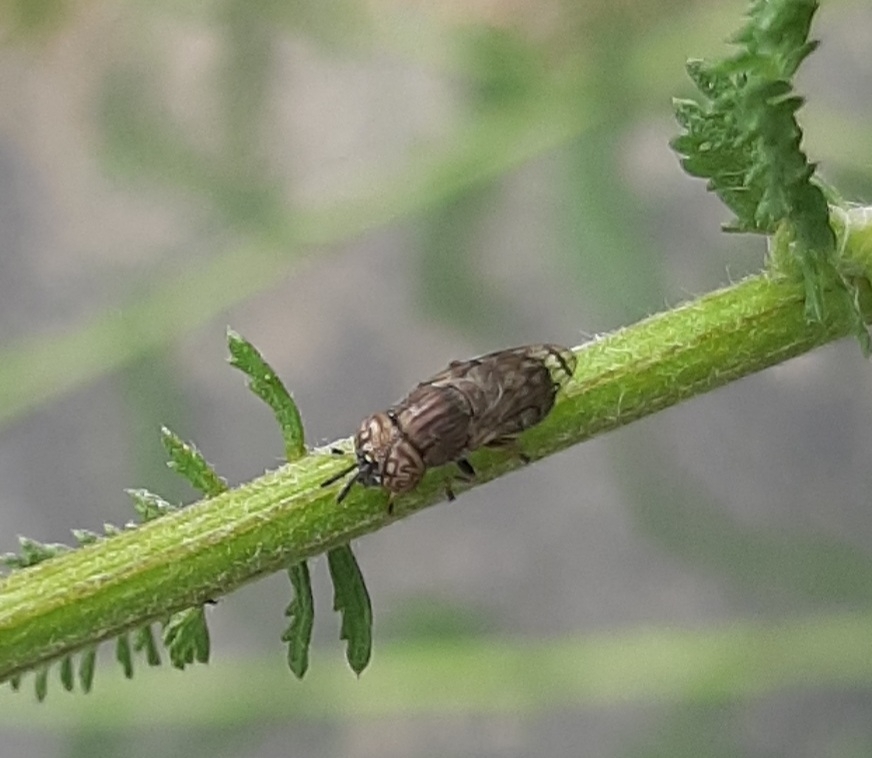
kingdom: Animalia
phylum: Arthropoda
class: Insecta
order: Diptera
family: Syrphidae
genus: Orthonevra
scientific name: Orthonevra nitida
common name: Wavy mucksucker
